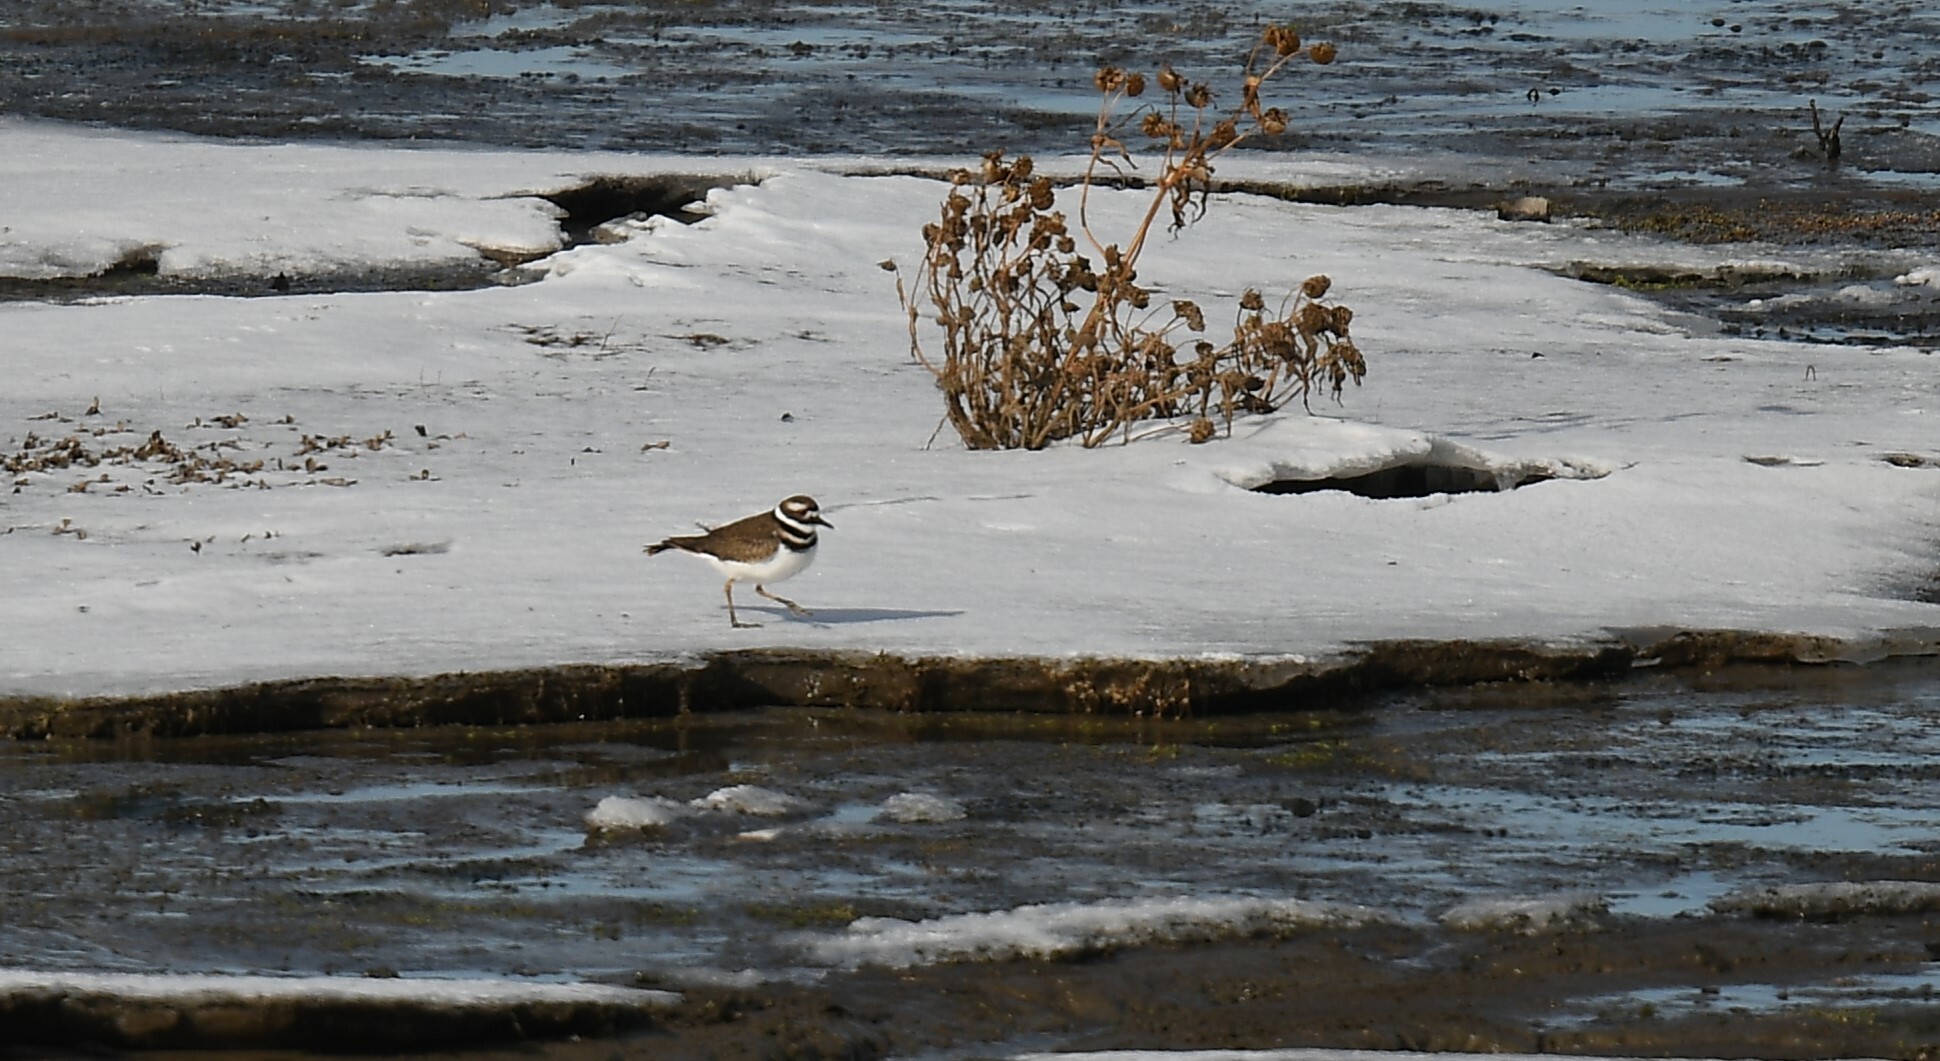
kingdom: Animalia
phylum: Chordata
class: Aves
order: Charadriiformes
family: Charadriidae
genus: Charadrius
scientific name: Charadrius vociferus
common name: Killdeer
